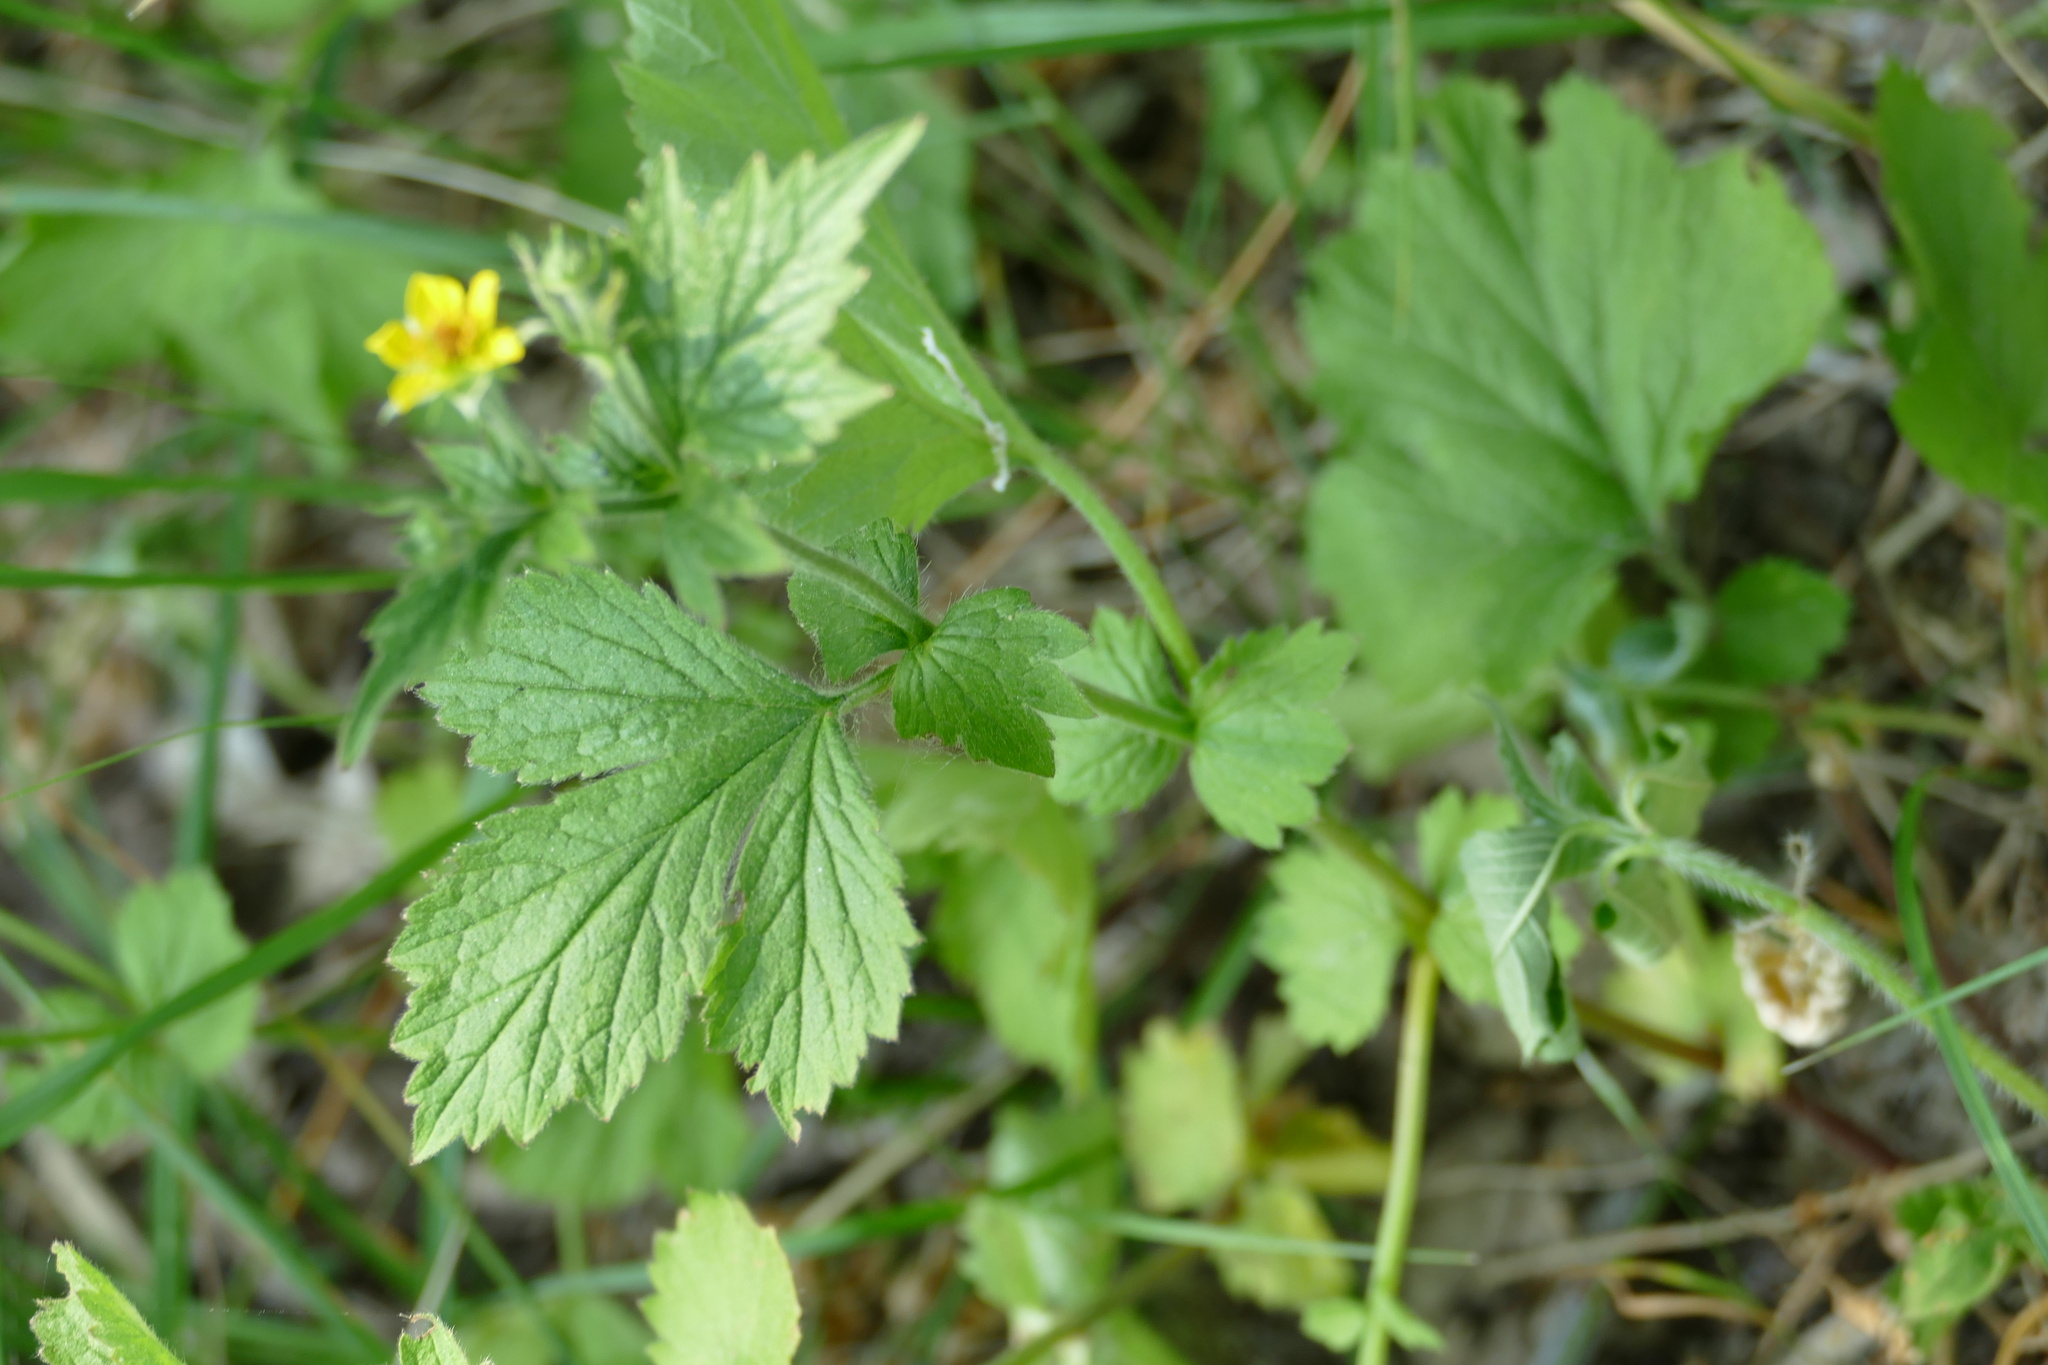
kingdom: Plantae
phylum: Tracheophyta
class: Magnoliopsida
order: Rosales
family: Rosaceae
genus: Geum
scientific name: Geum urbanum
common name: Wood avens
